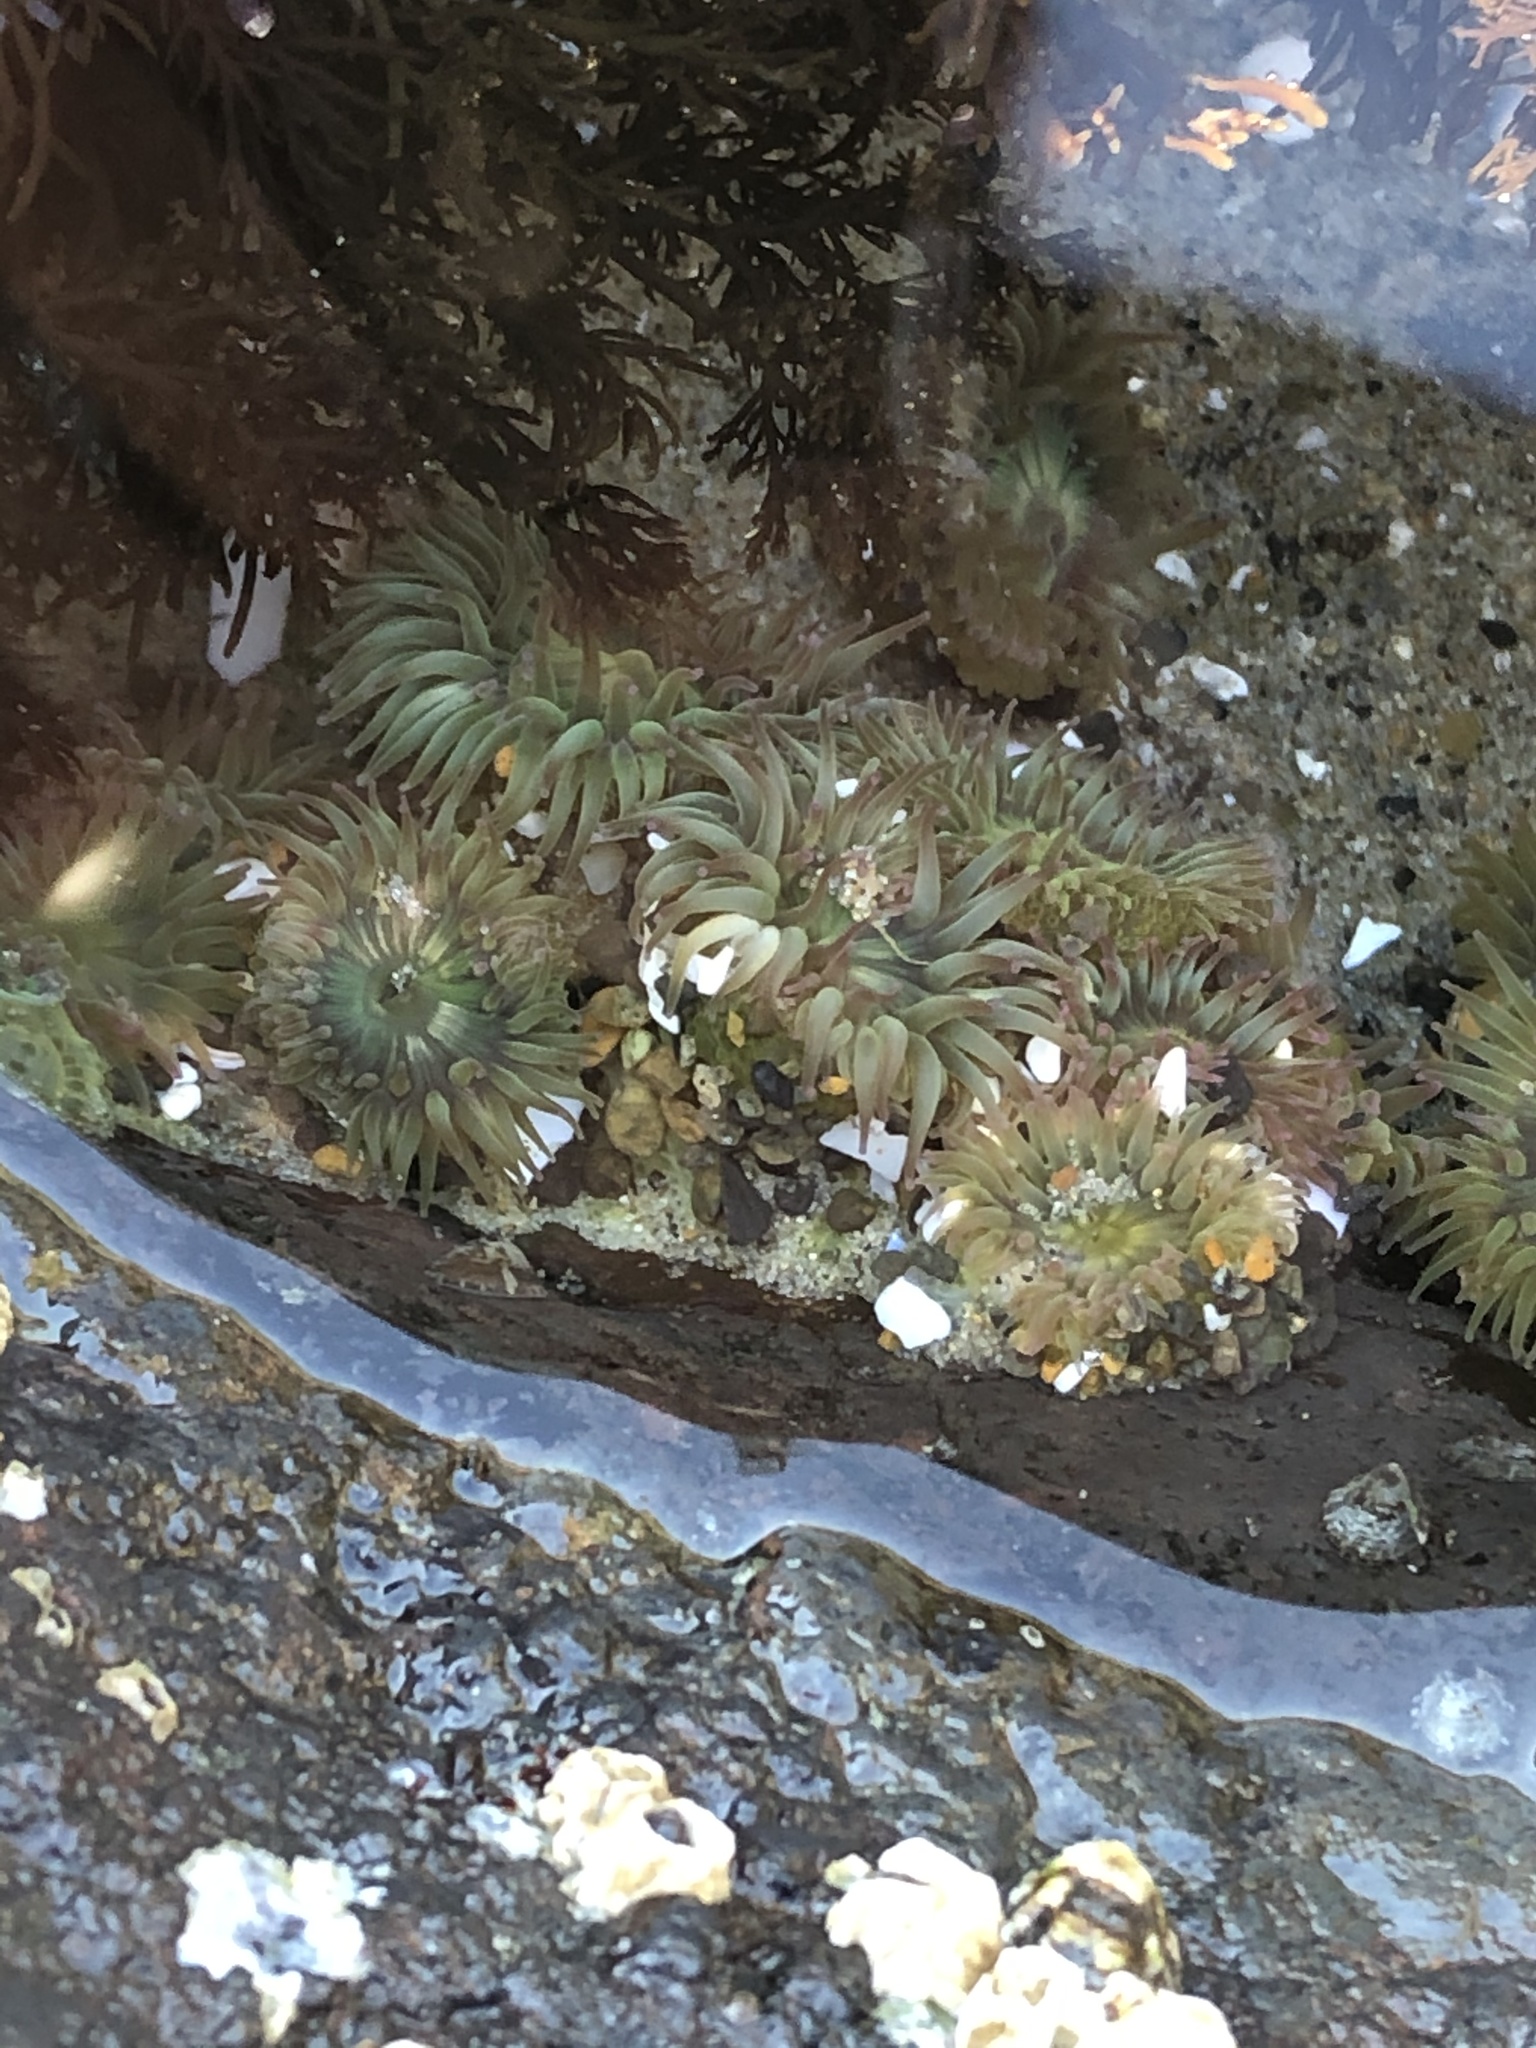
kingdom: Animalia
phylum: Cnidaria
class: Anthozoa
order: Actiniaria
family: Actiniidae
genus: Anthopleura
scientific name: Anthopleura elegantissima
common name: Clonal anemone
